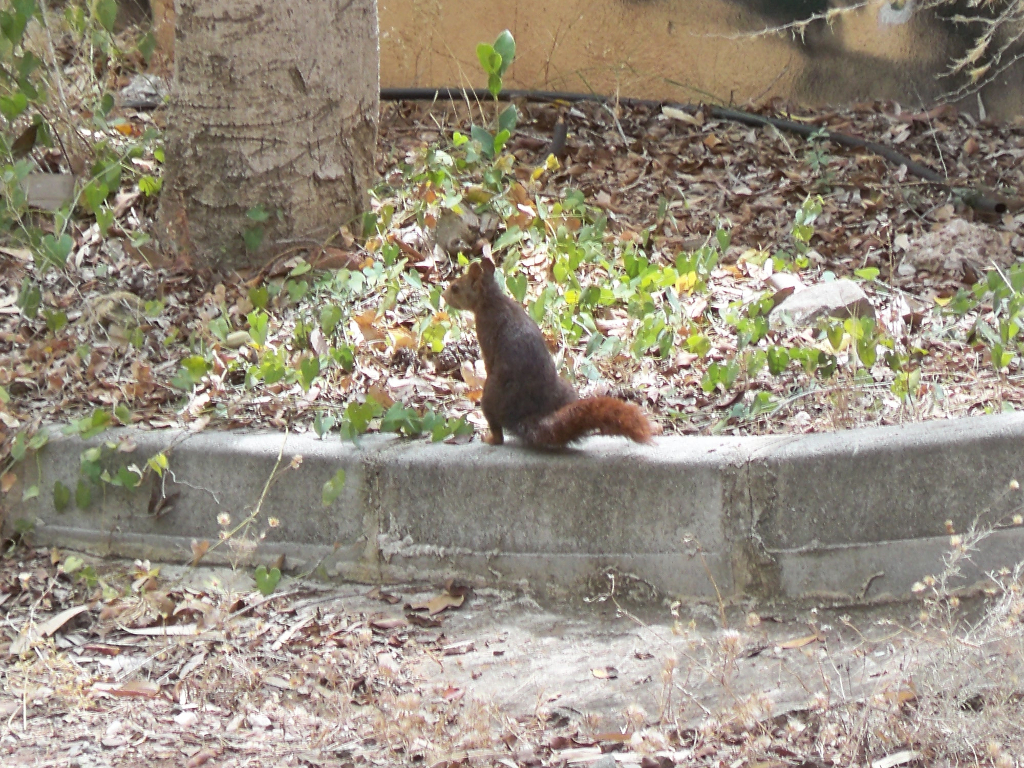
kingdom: Animalia
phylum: Chordata
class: Mammalia
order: Rodentia
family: Sciuridae
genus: Sciurus
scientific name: Sciurus vulgaris
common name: Eurasian red squirrel
